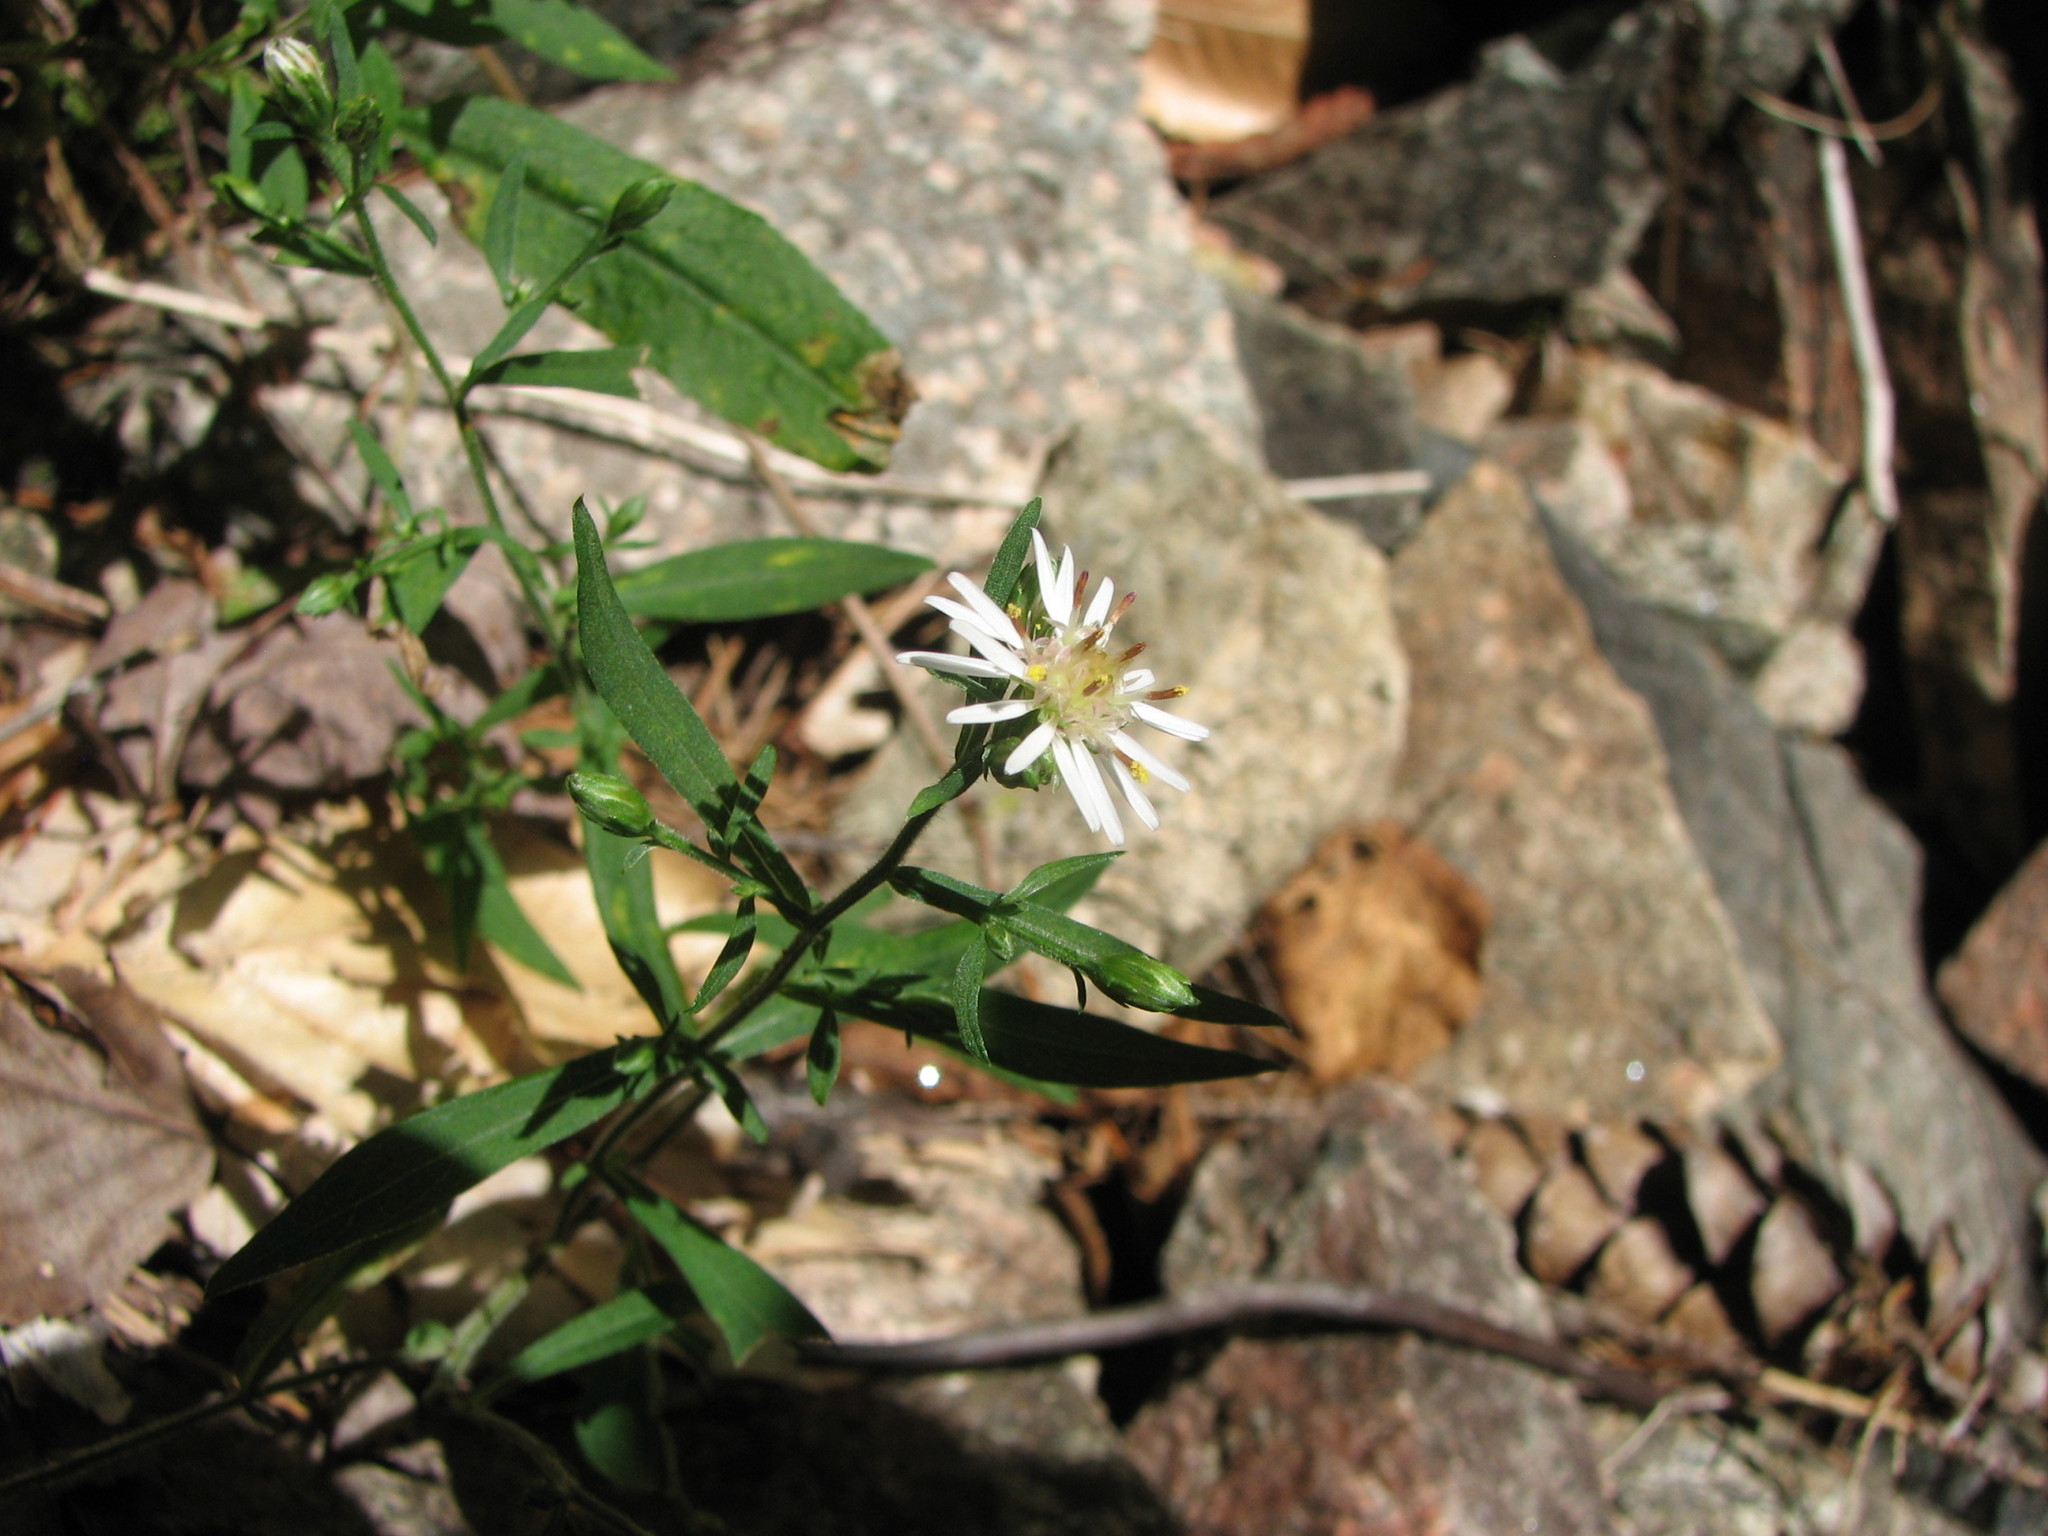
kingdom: Plantae
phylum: Tracheophyta
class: Magnoliopsida
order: Asterales
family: Asteraceae
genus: Symphyotrichum
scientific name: Symphyotrichum lateriflorum
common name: Calico aster
